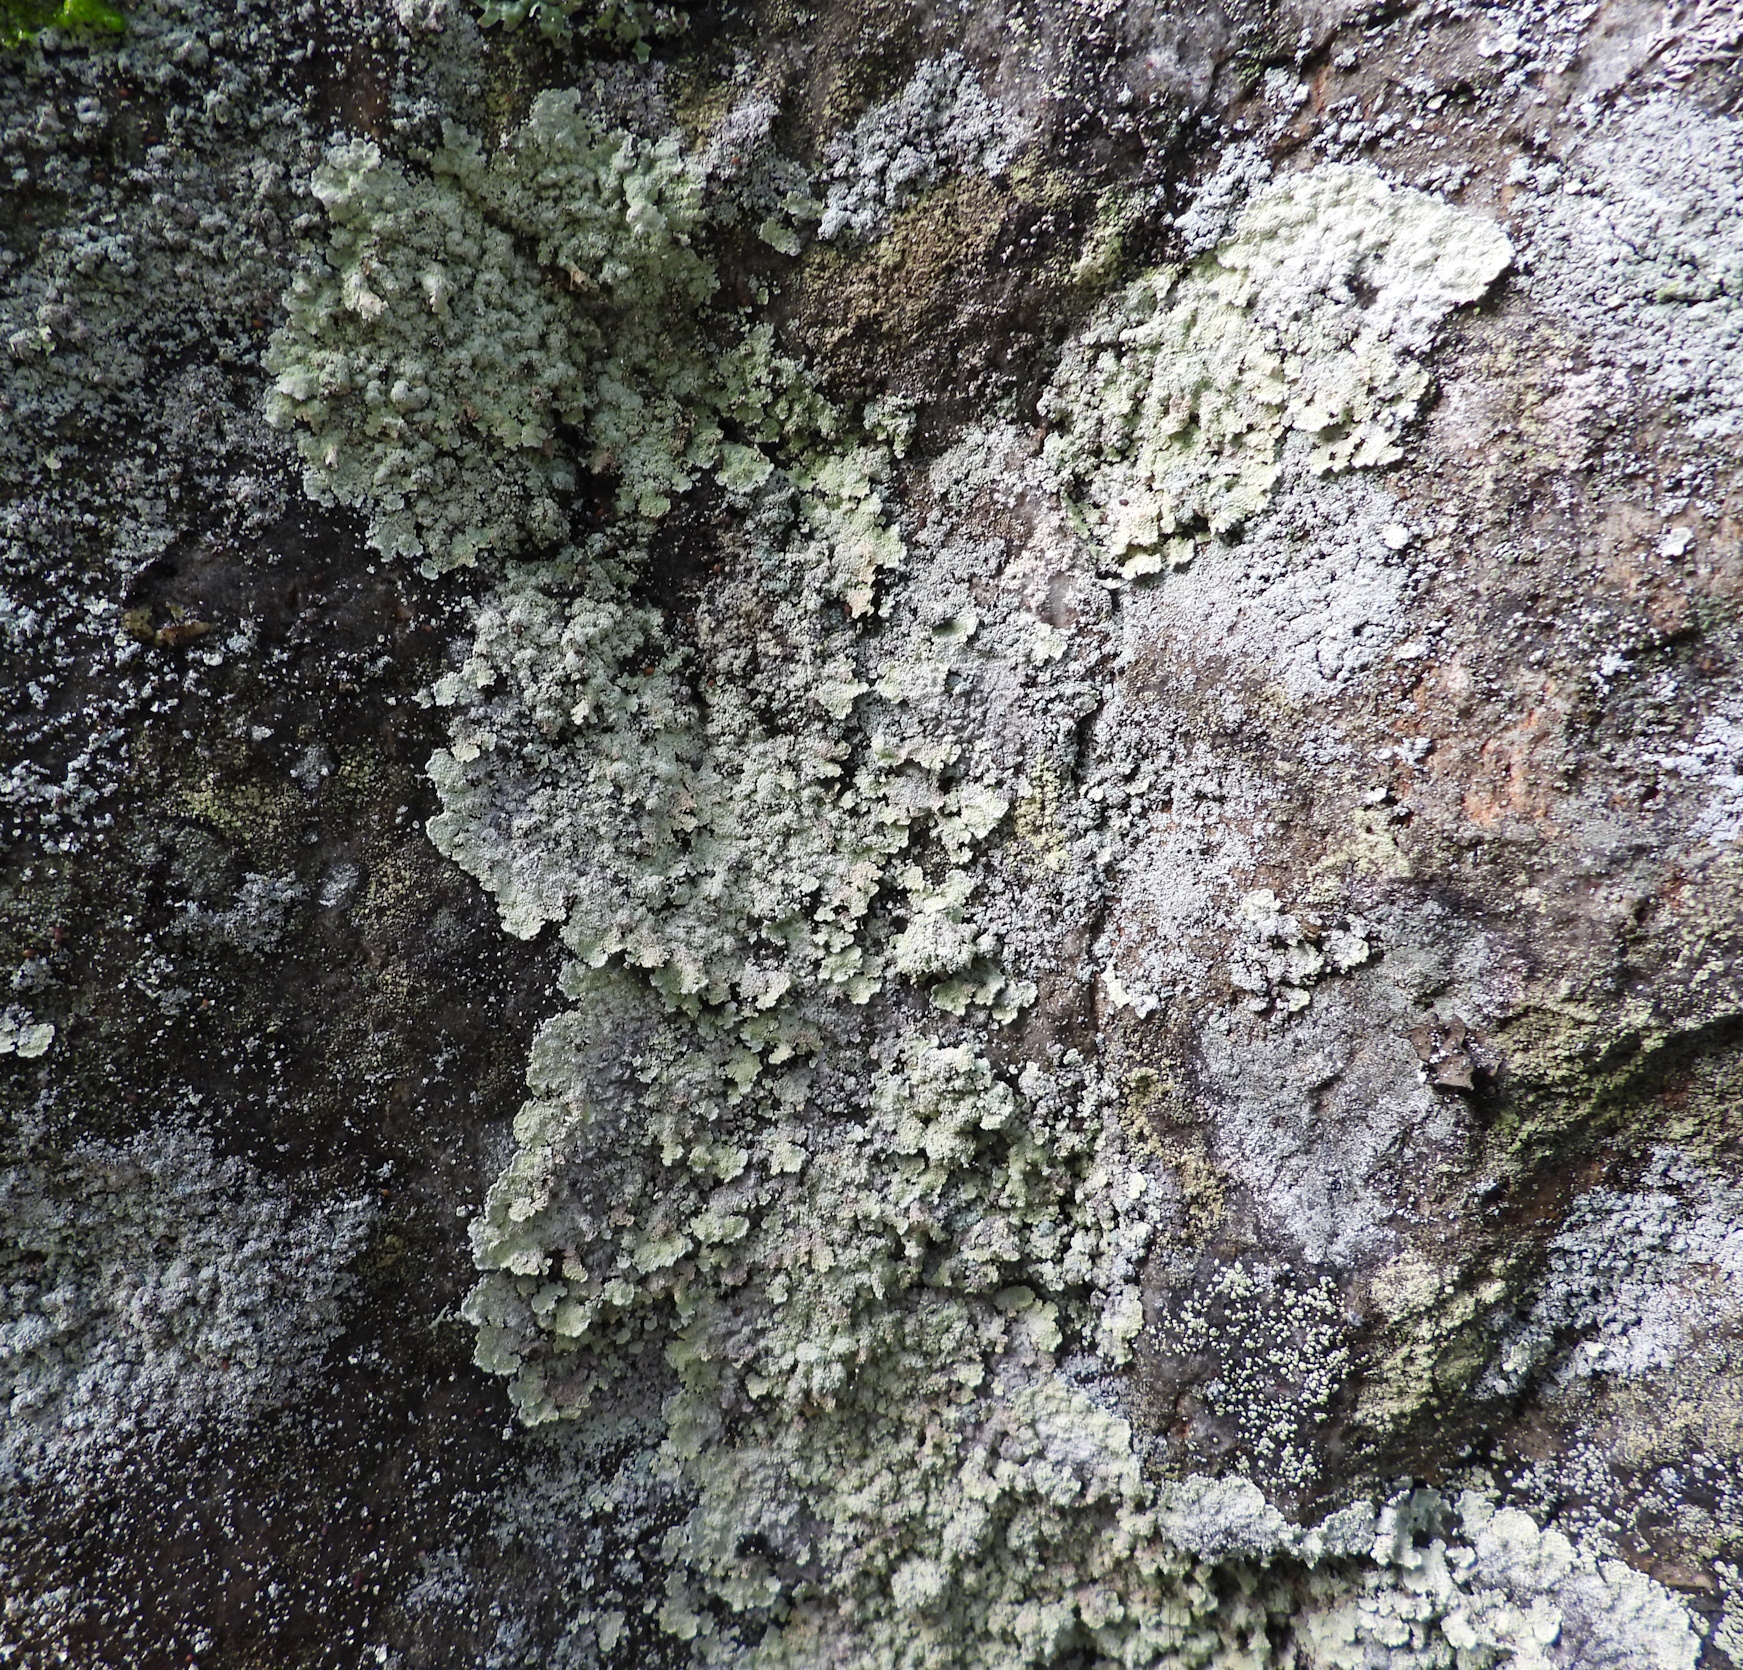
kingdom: Fungi
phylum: Ascomycota
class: Lecanoromycetes
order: Lecanorales
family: Stereocaulaceae
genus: Lepraria
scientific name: Lepraria membranacea
